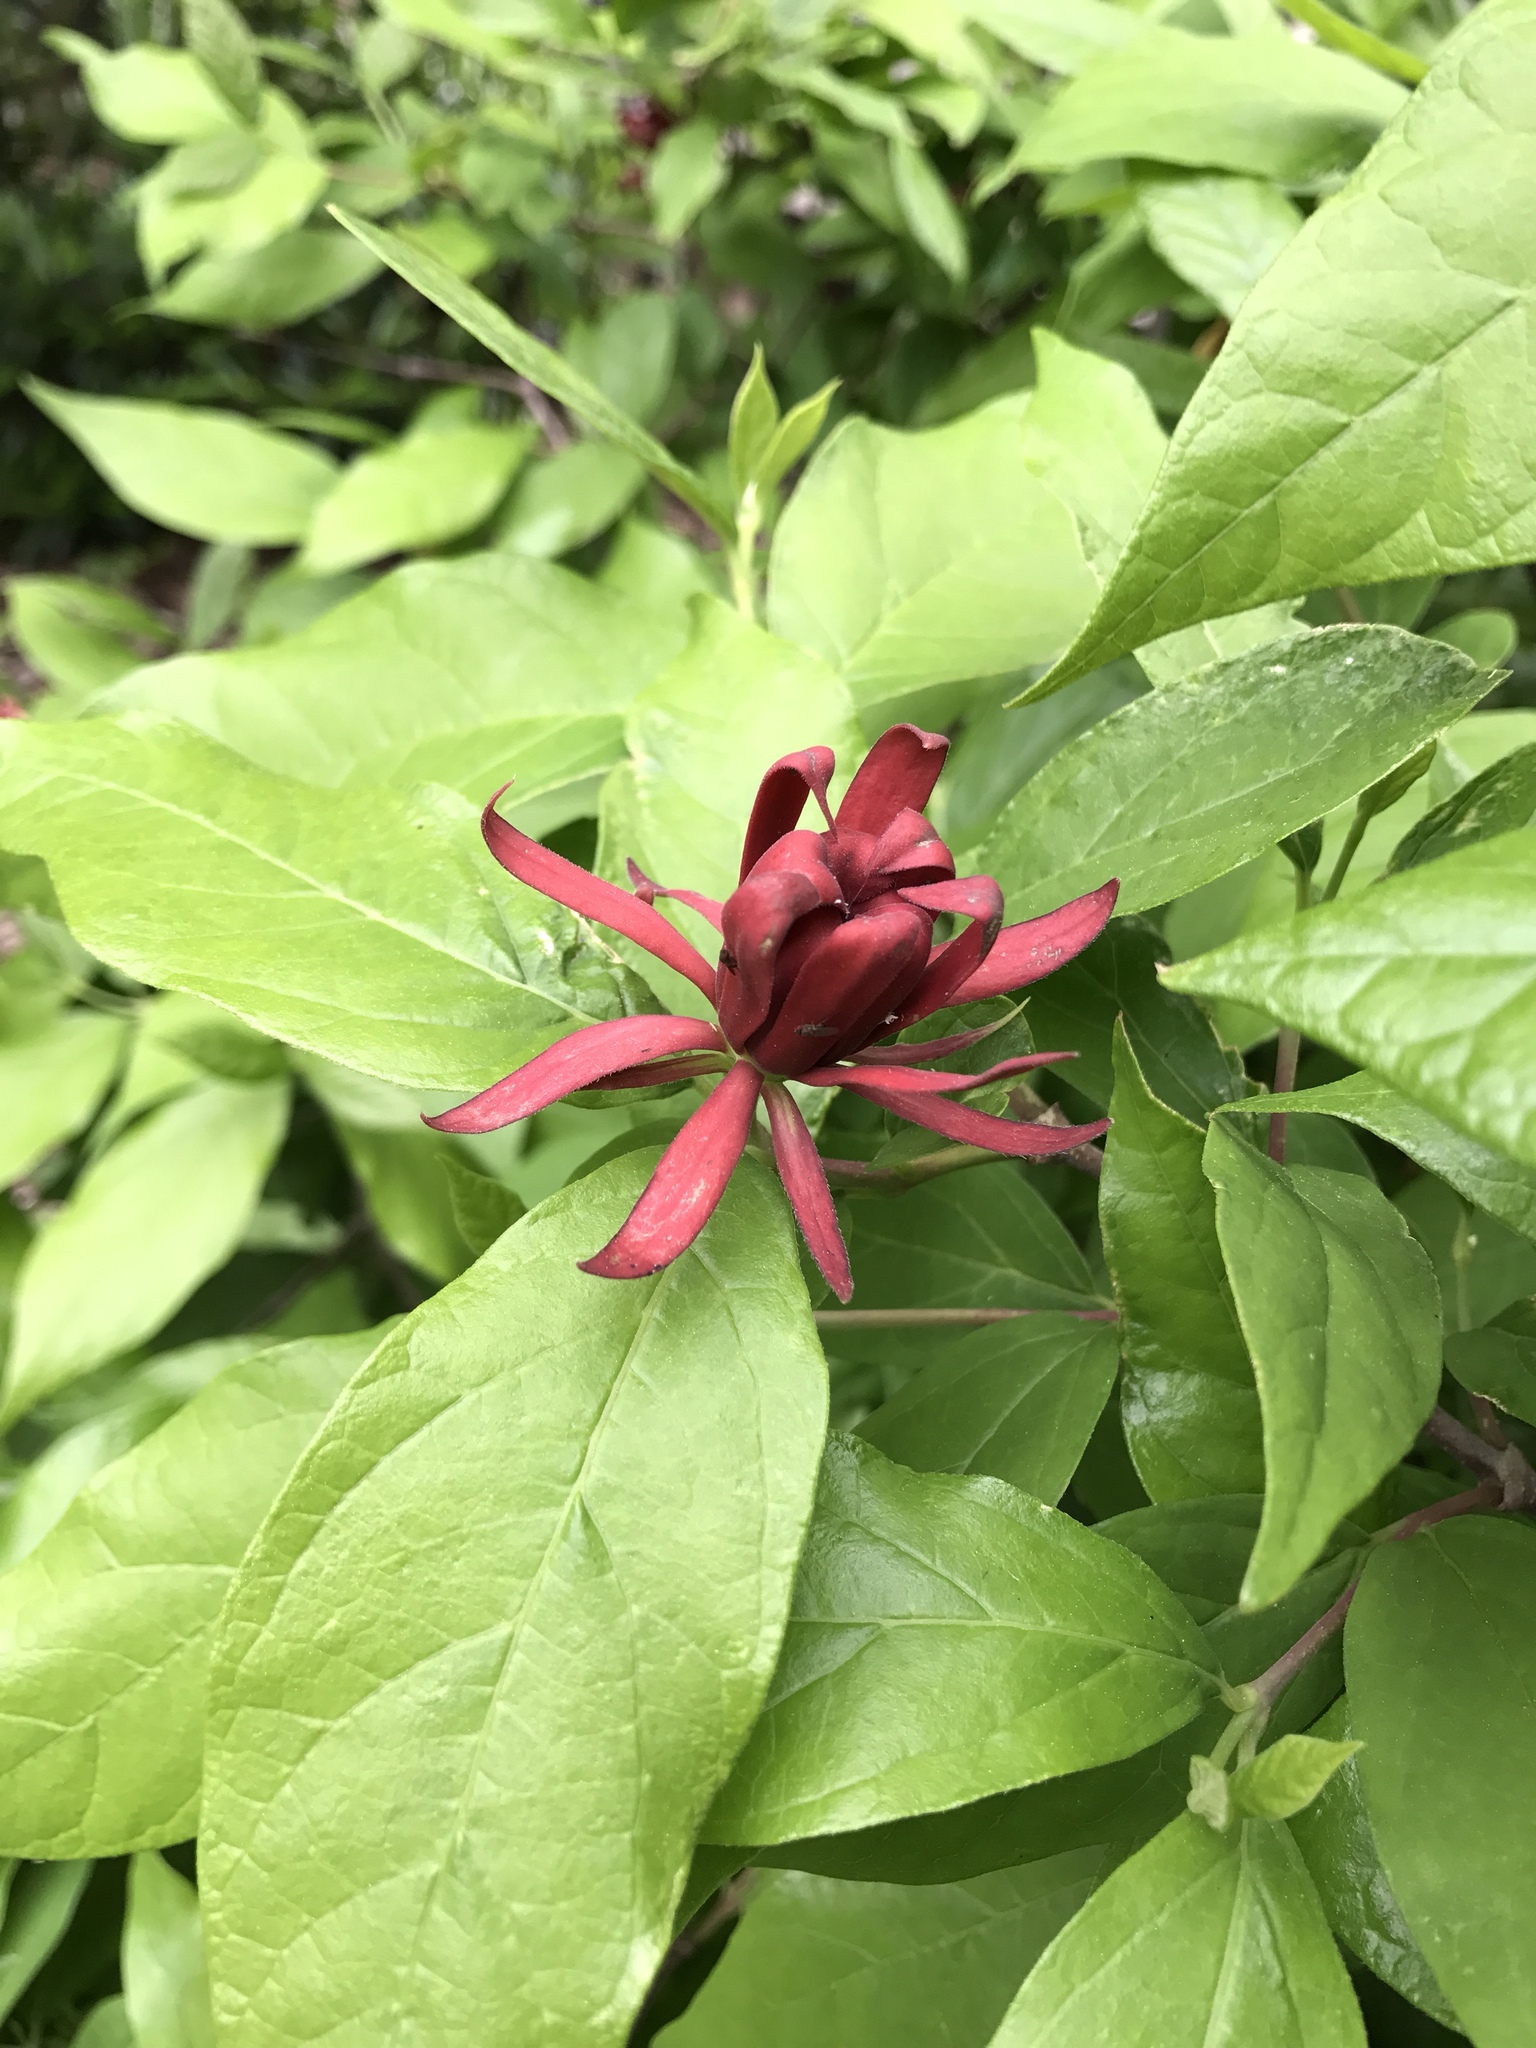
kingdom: Plantae
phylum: Tracheophyta
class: Magnoliopsida
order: Laurales
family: Calycanthaceae
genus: Calycanthus
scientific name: Calycanthus floridus
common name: Carolina-allspice
